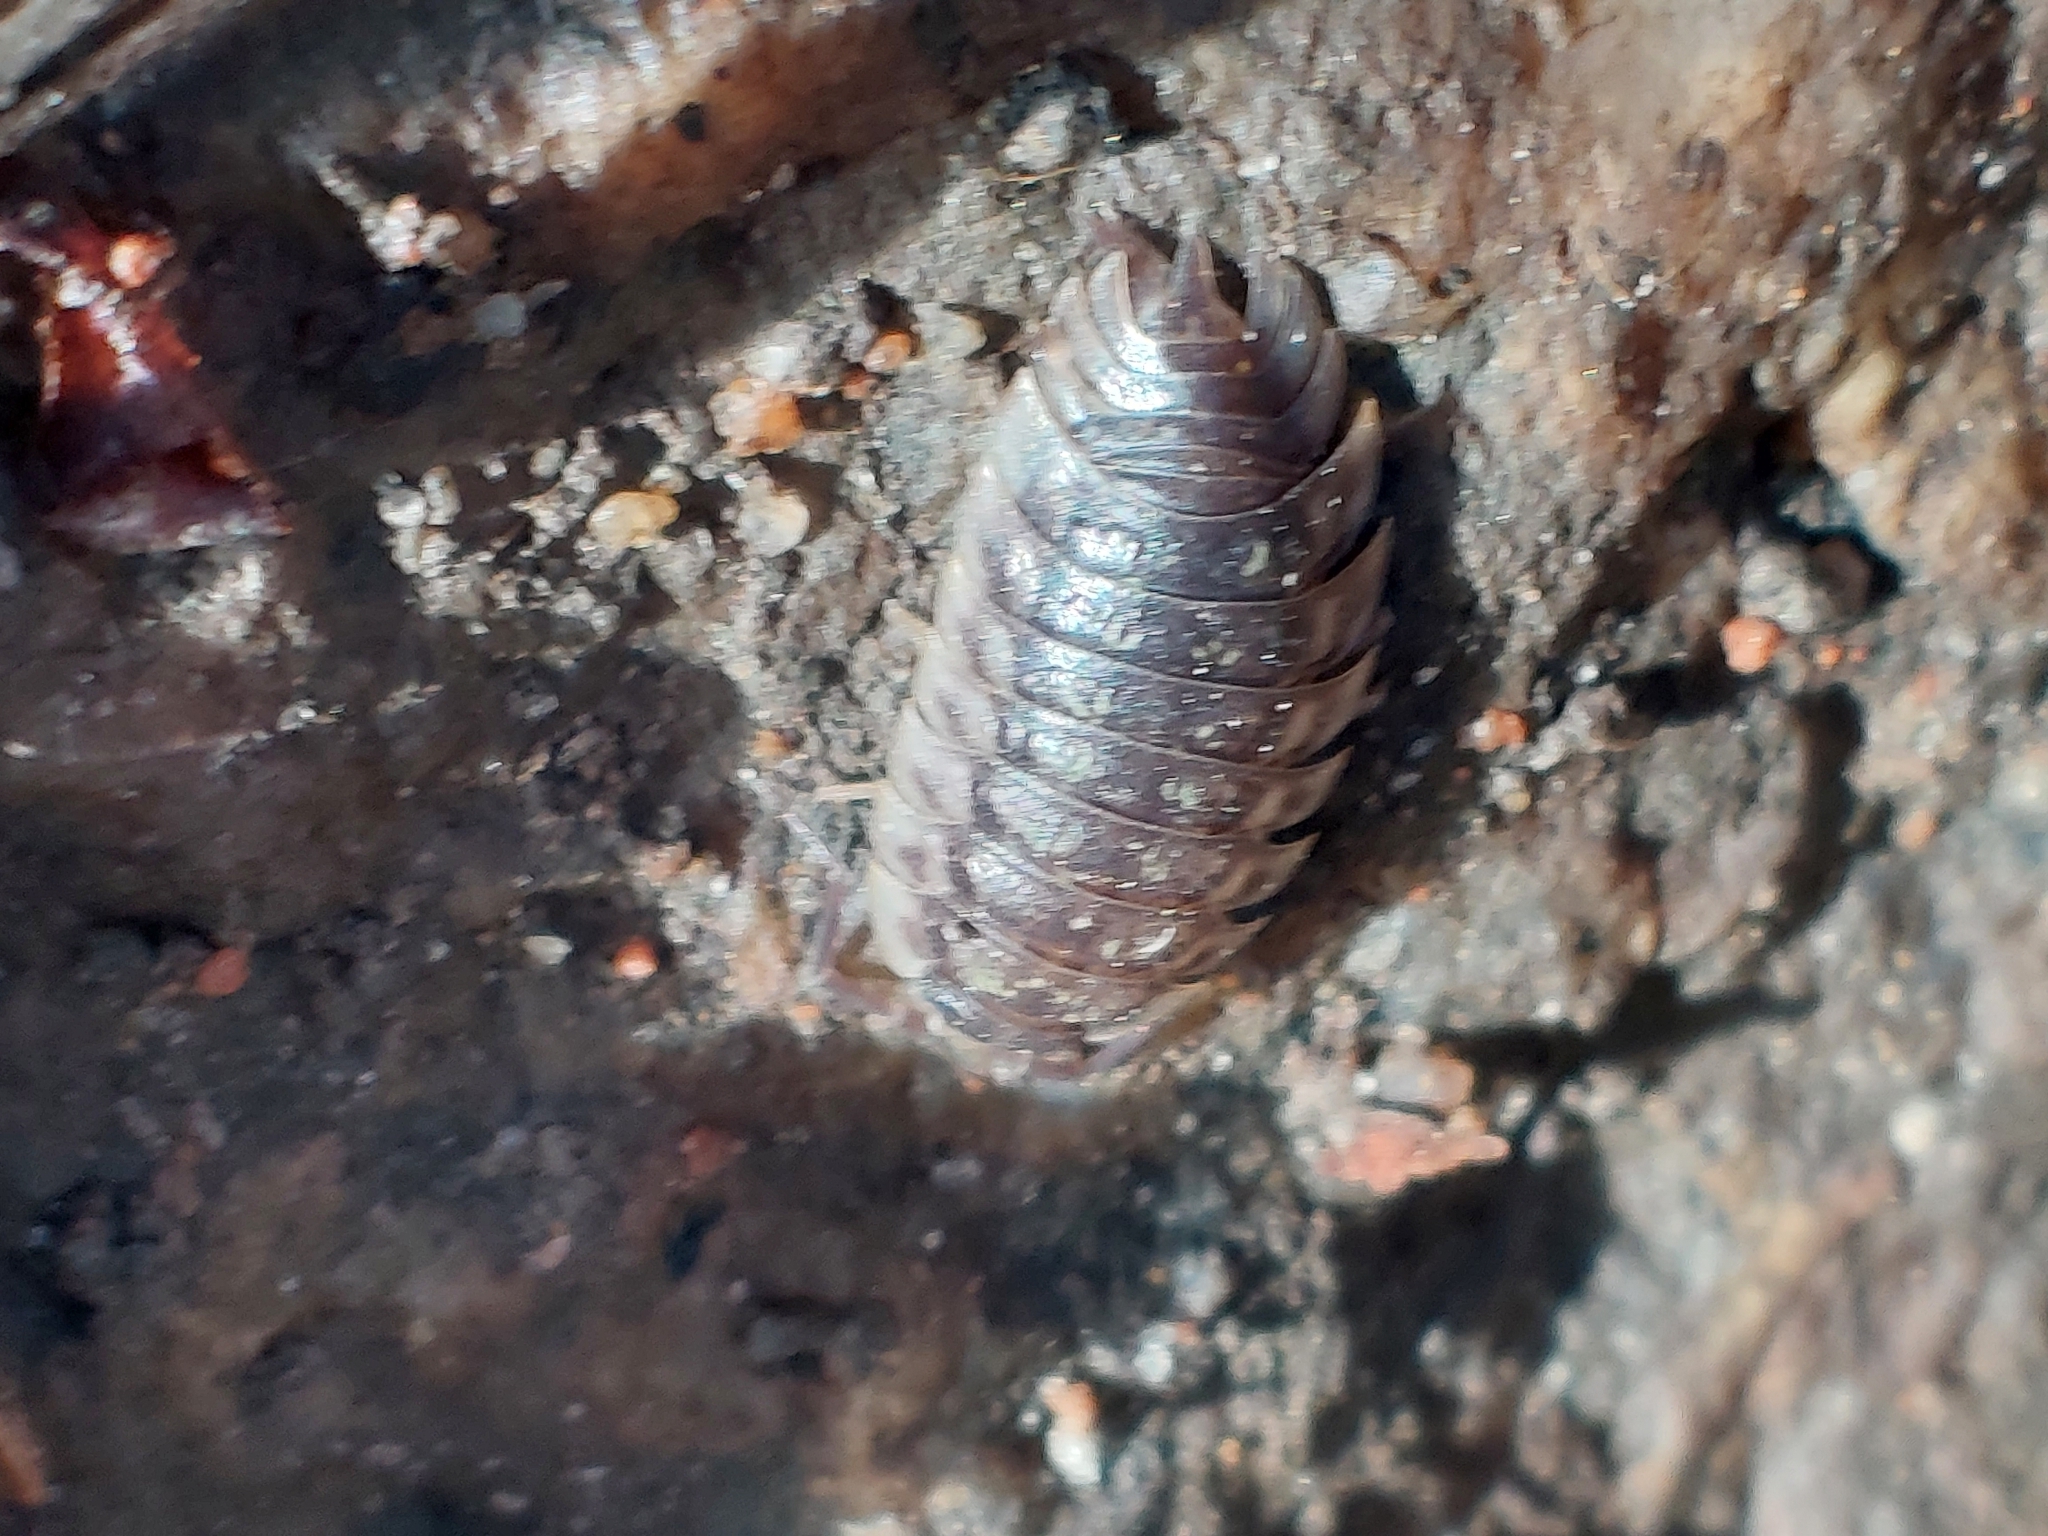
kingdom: Animalia
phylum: Arthropoda
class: Malacostraca
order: Isopoda
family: Oniscidae
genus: Oniscus
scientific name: Oniscus asellus
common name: Common shiny woodlouse
